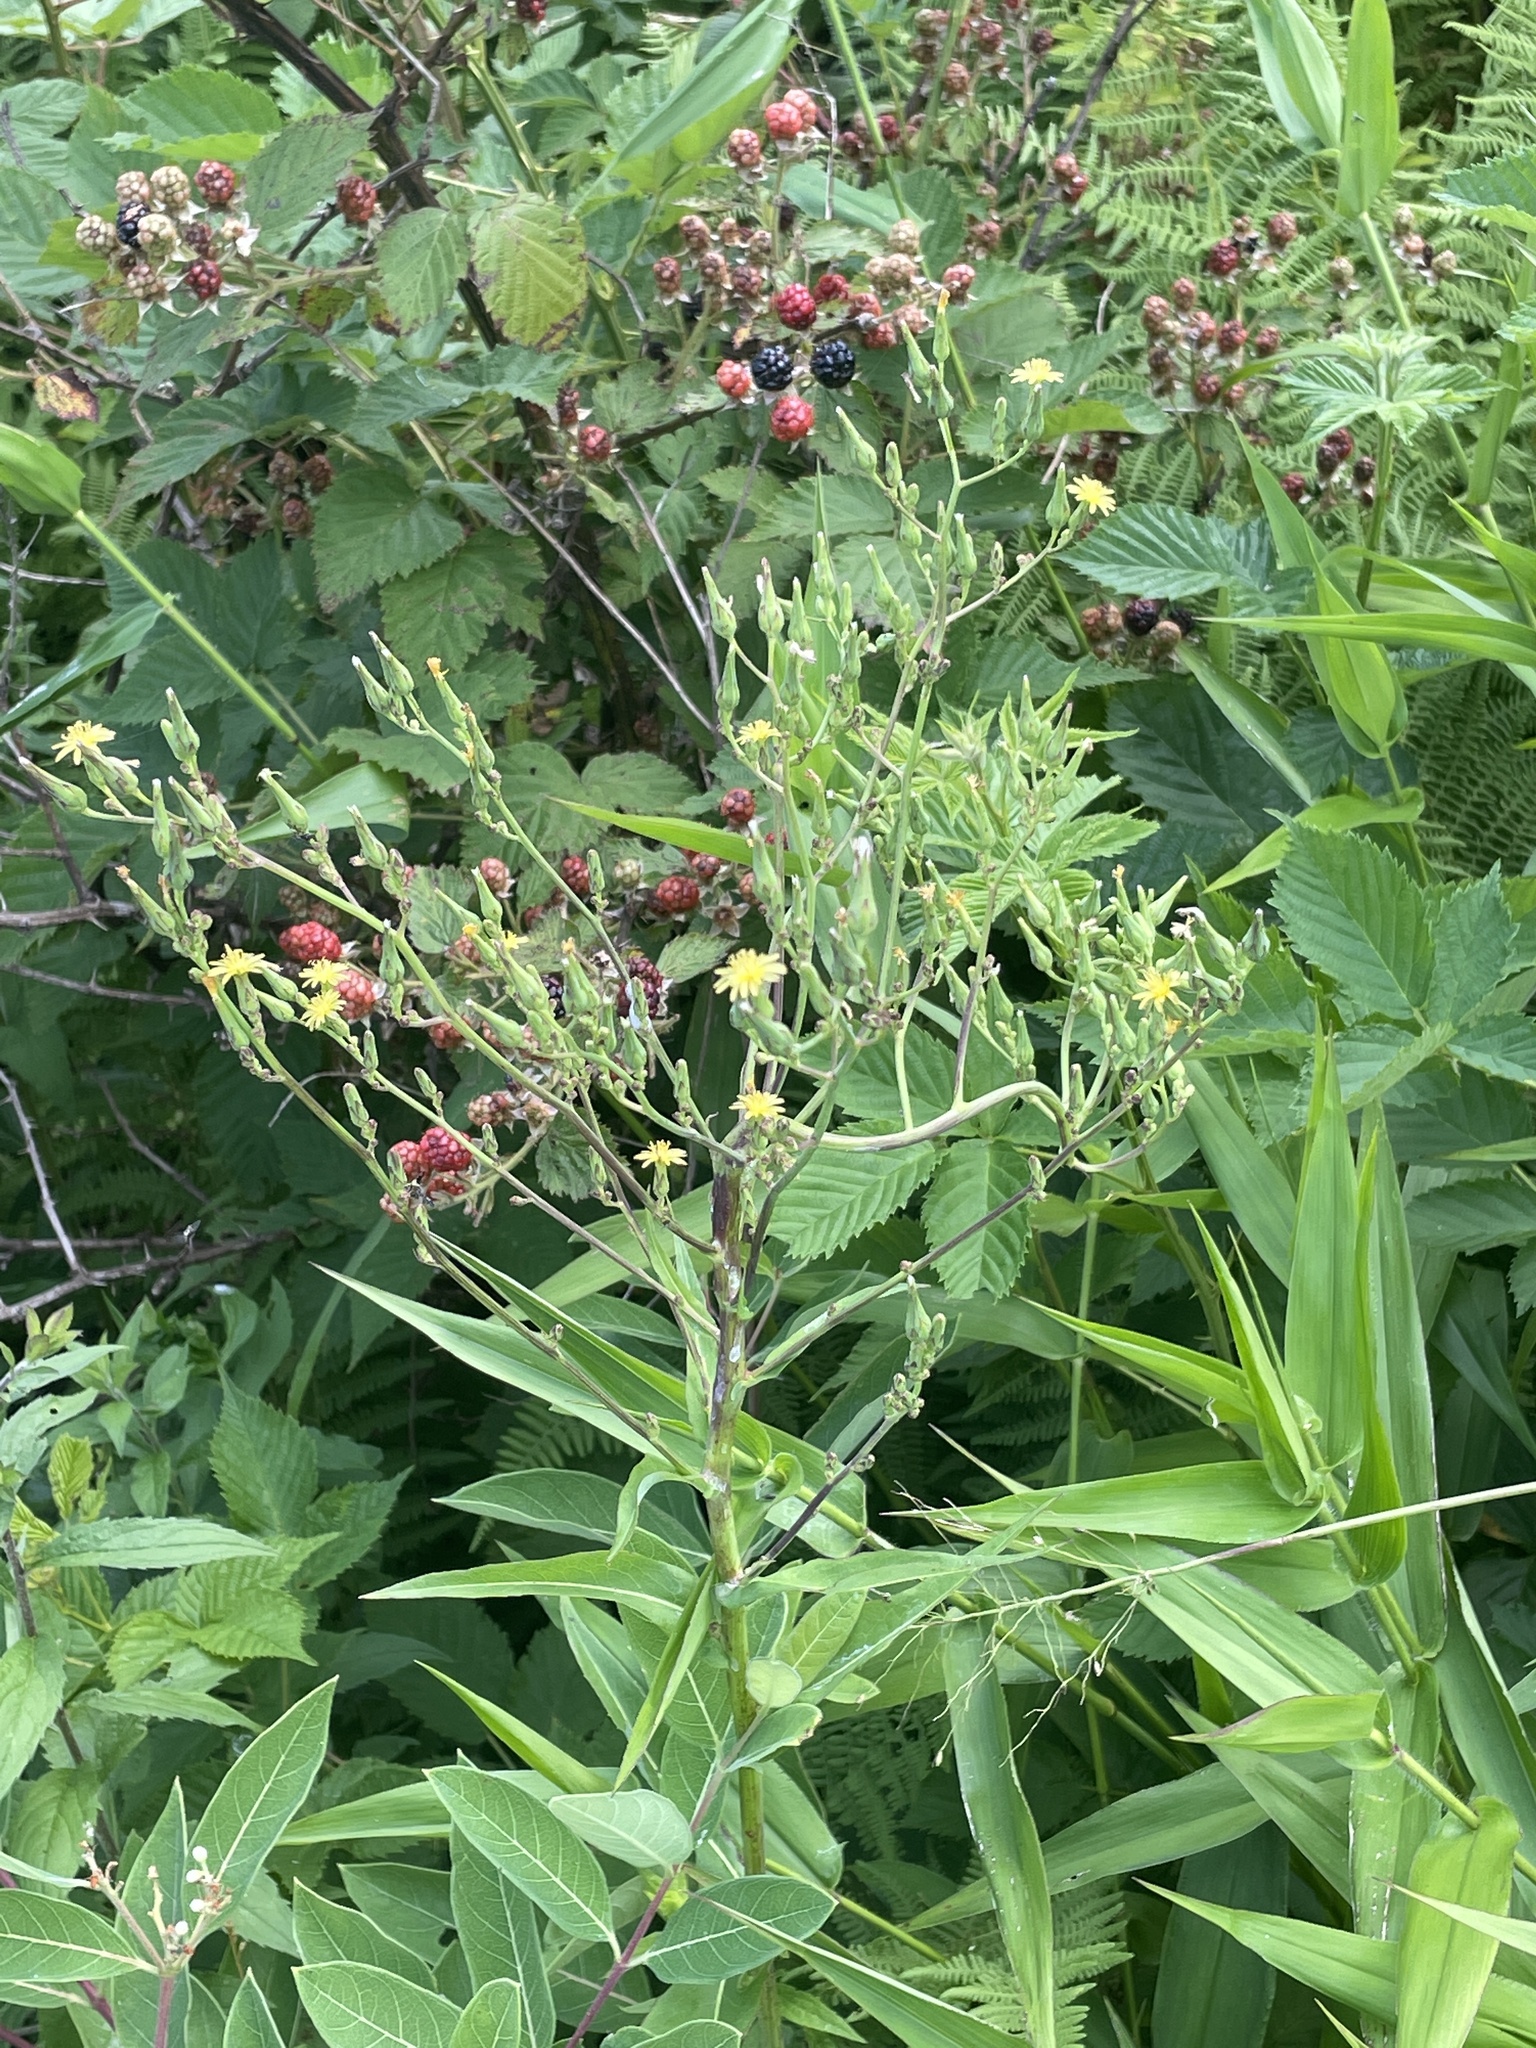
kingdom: Plantae
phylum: Tracheophyta
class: Magnoliopsida
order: Asterales
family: Asteraceae
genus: Lactuca
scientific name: Lactuca canadensis
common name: Canada lettuce
